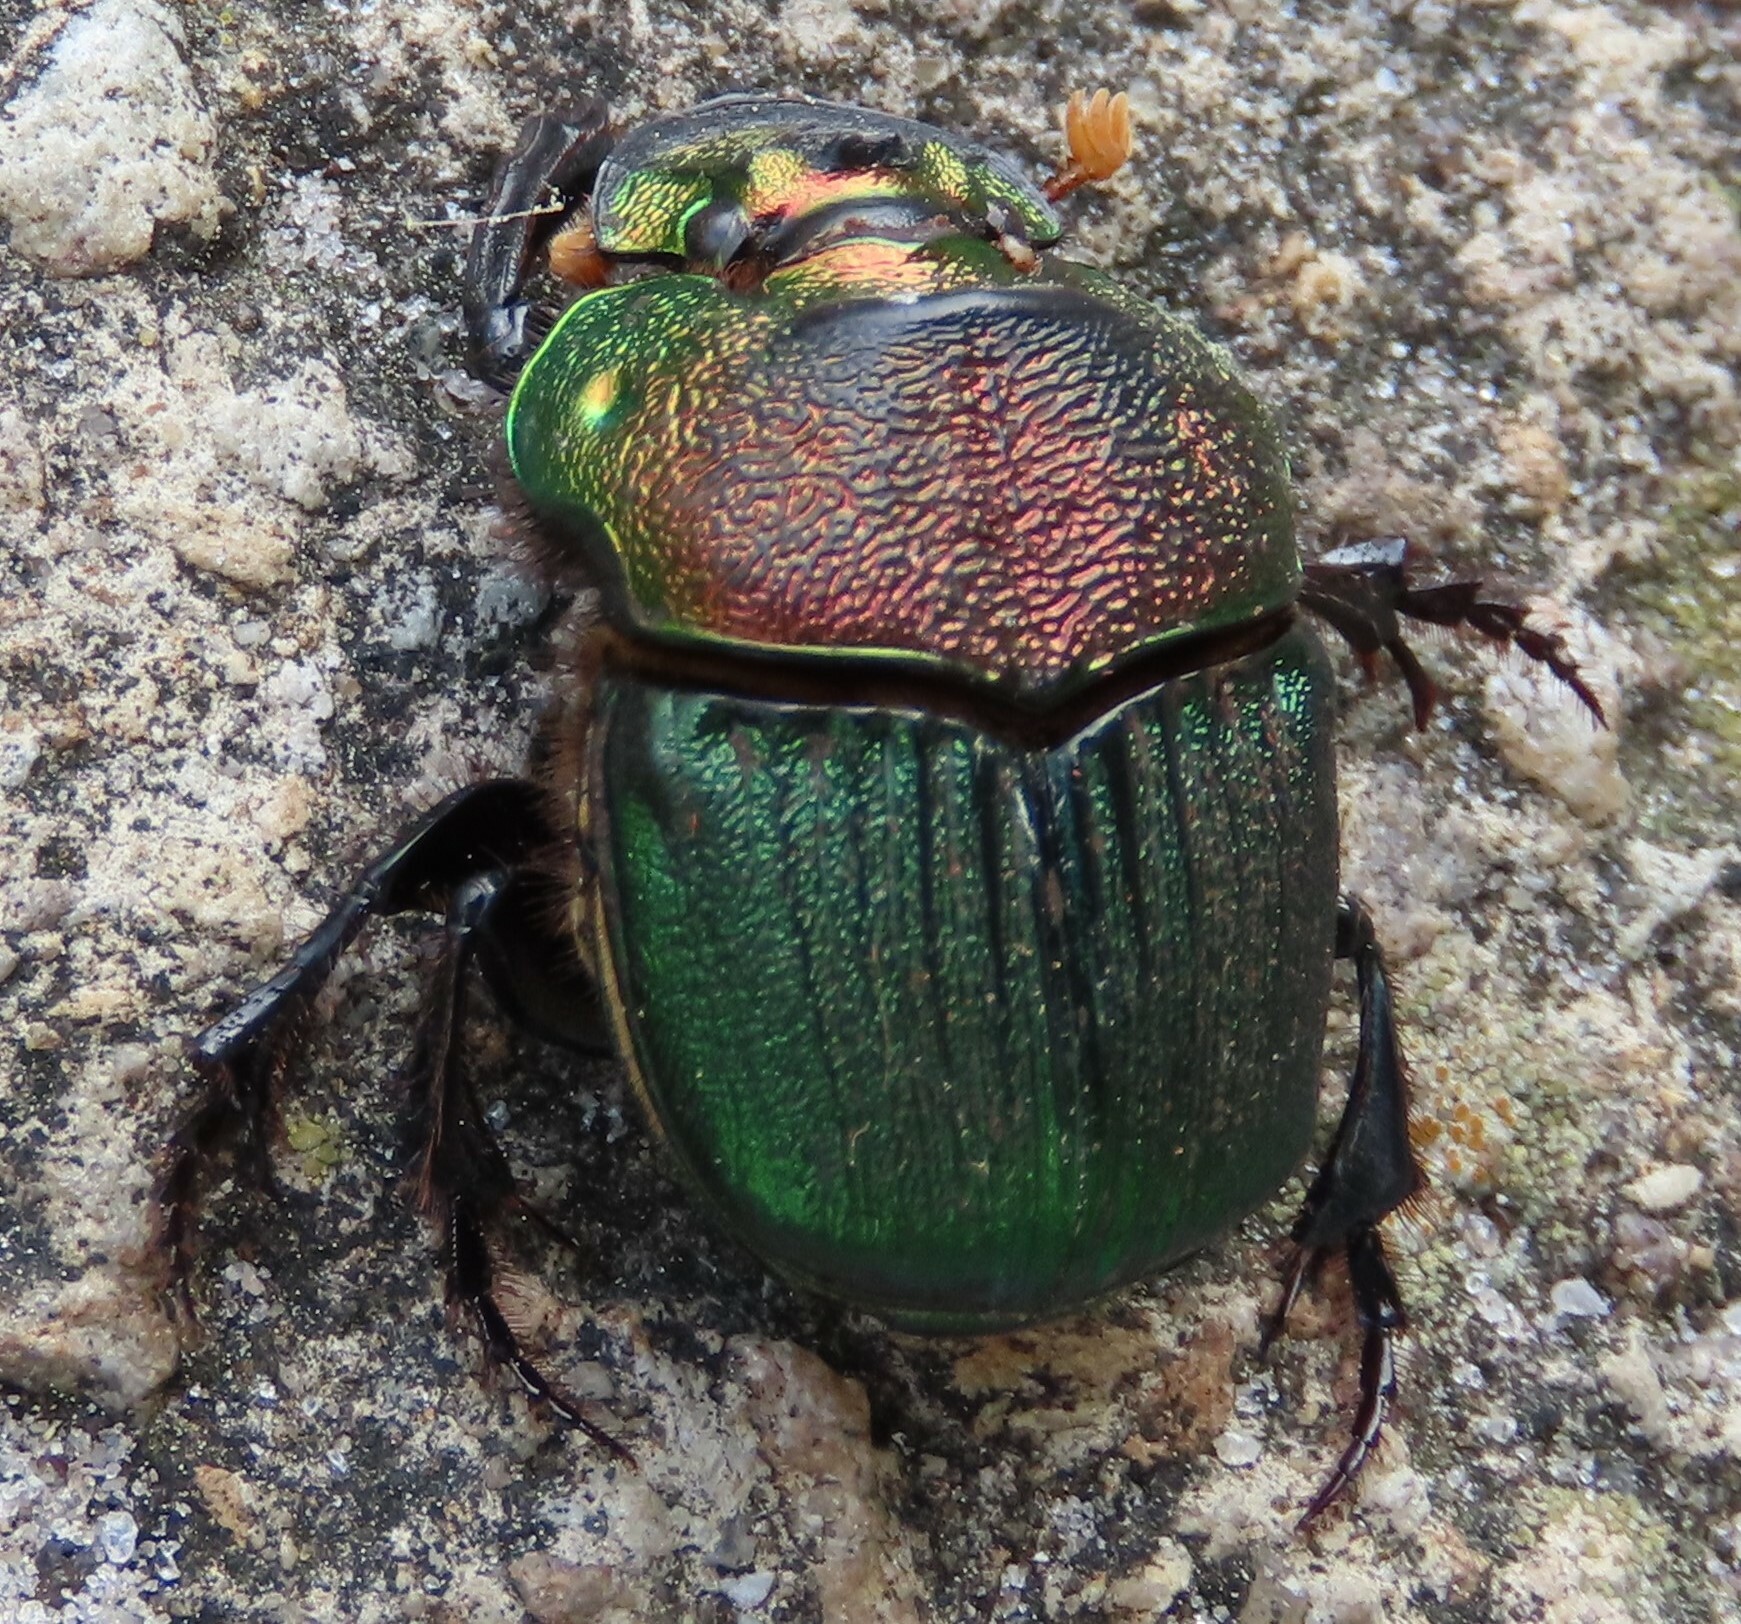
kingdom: Animalia
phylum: Arthropoda
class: Insecta
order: Coleoptera
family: Scarabaeidae
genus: Phanaeus
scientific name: Phanaeus vindex
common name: Rainbow scarab
